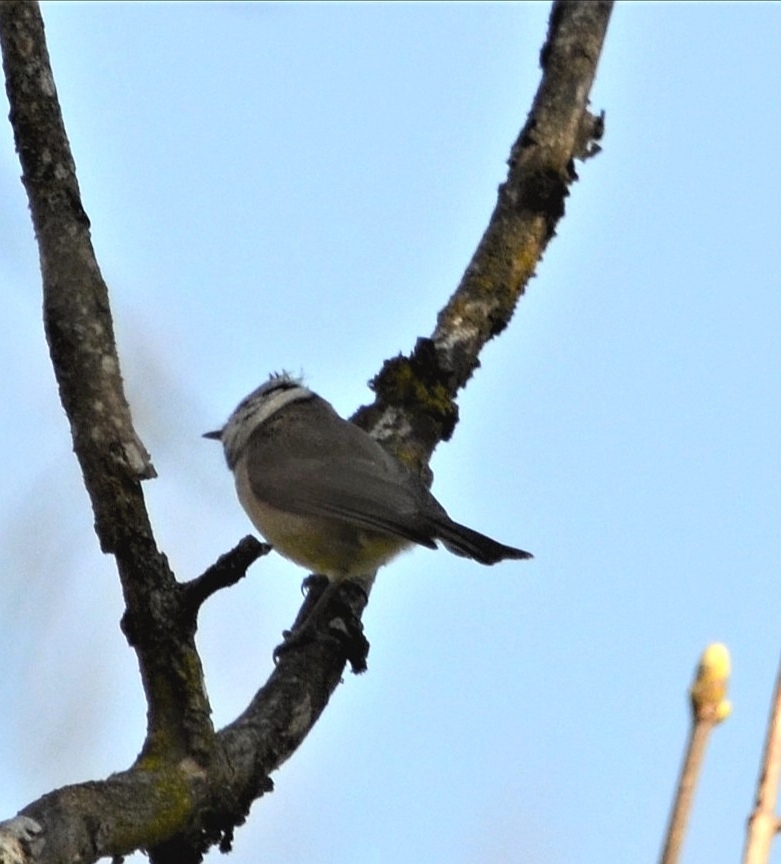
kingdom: Animalia
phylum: Chordata
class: Aves
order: Passeriformes
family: Paridae
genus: Lophophanes
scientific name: Lophophanes cristatus
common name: European crested tit
